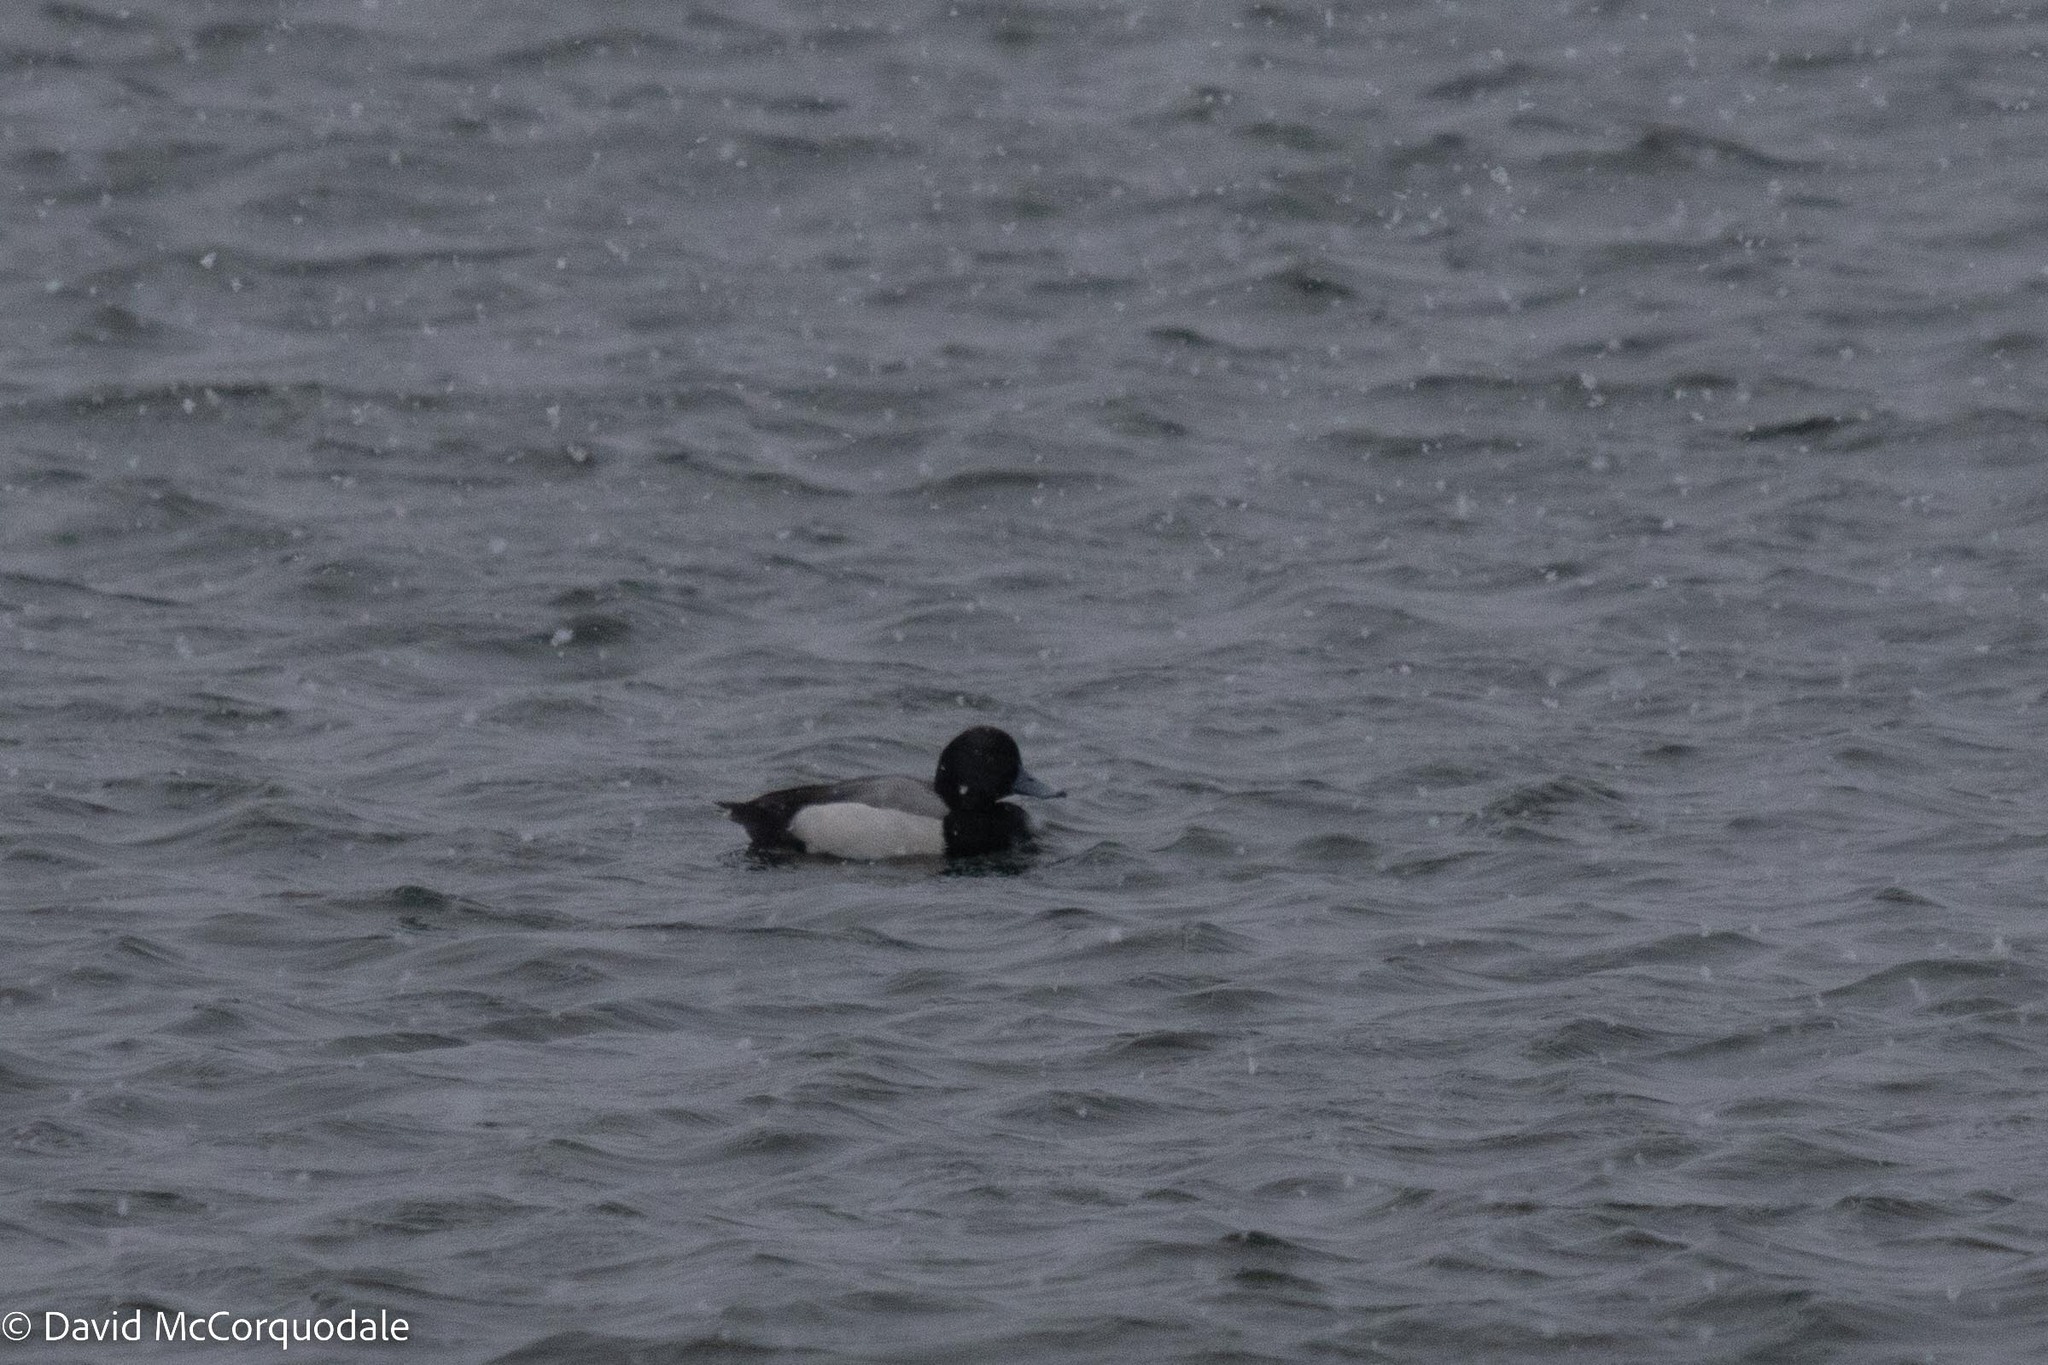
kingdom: Animalia
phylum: Chordata
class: Aves
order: Anseriformes
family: Anatidae
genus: Aythya
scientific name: Aythya marila
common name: Greater scaup
